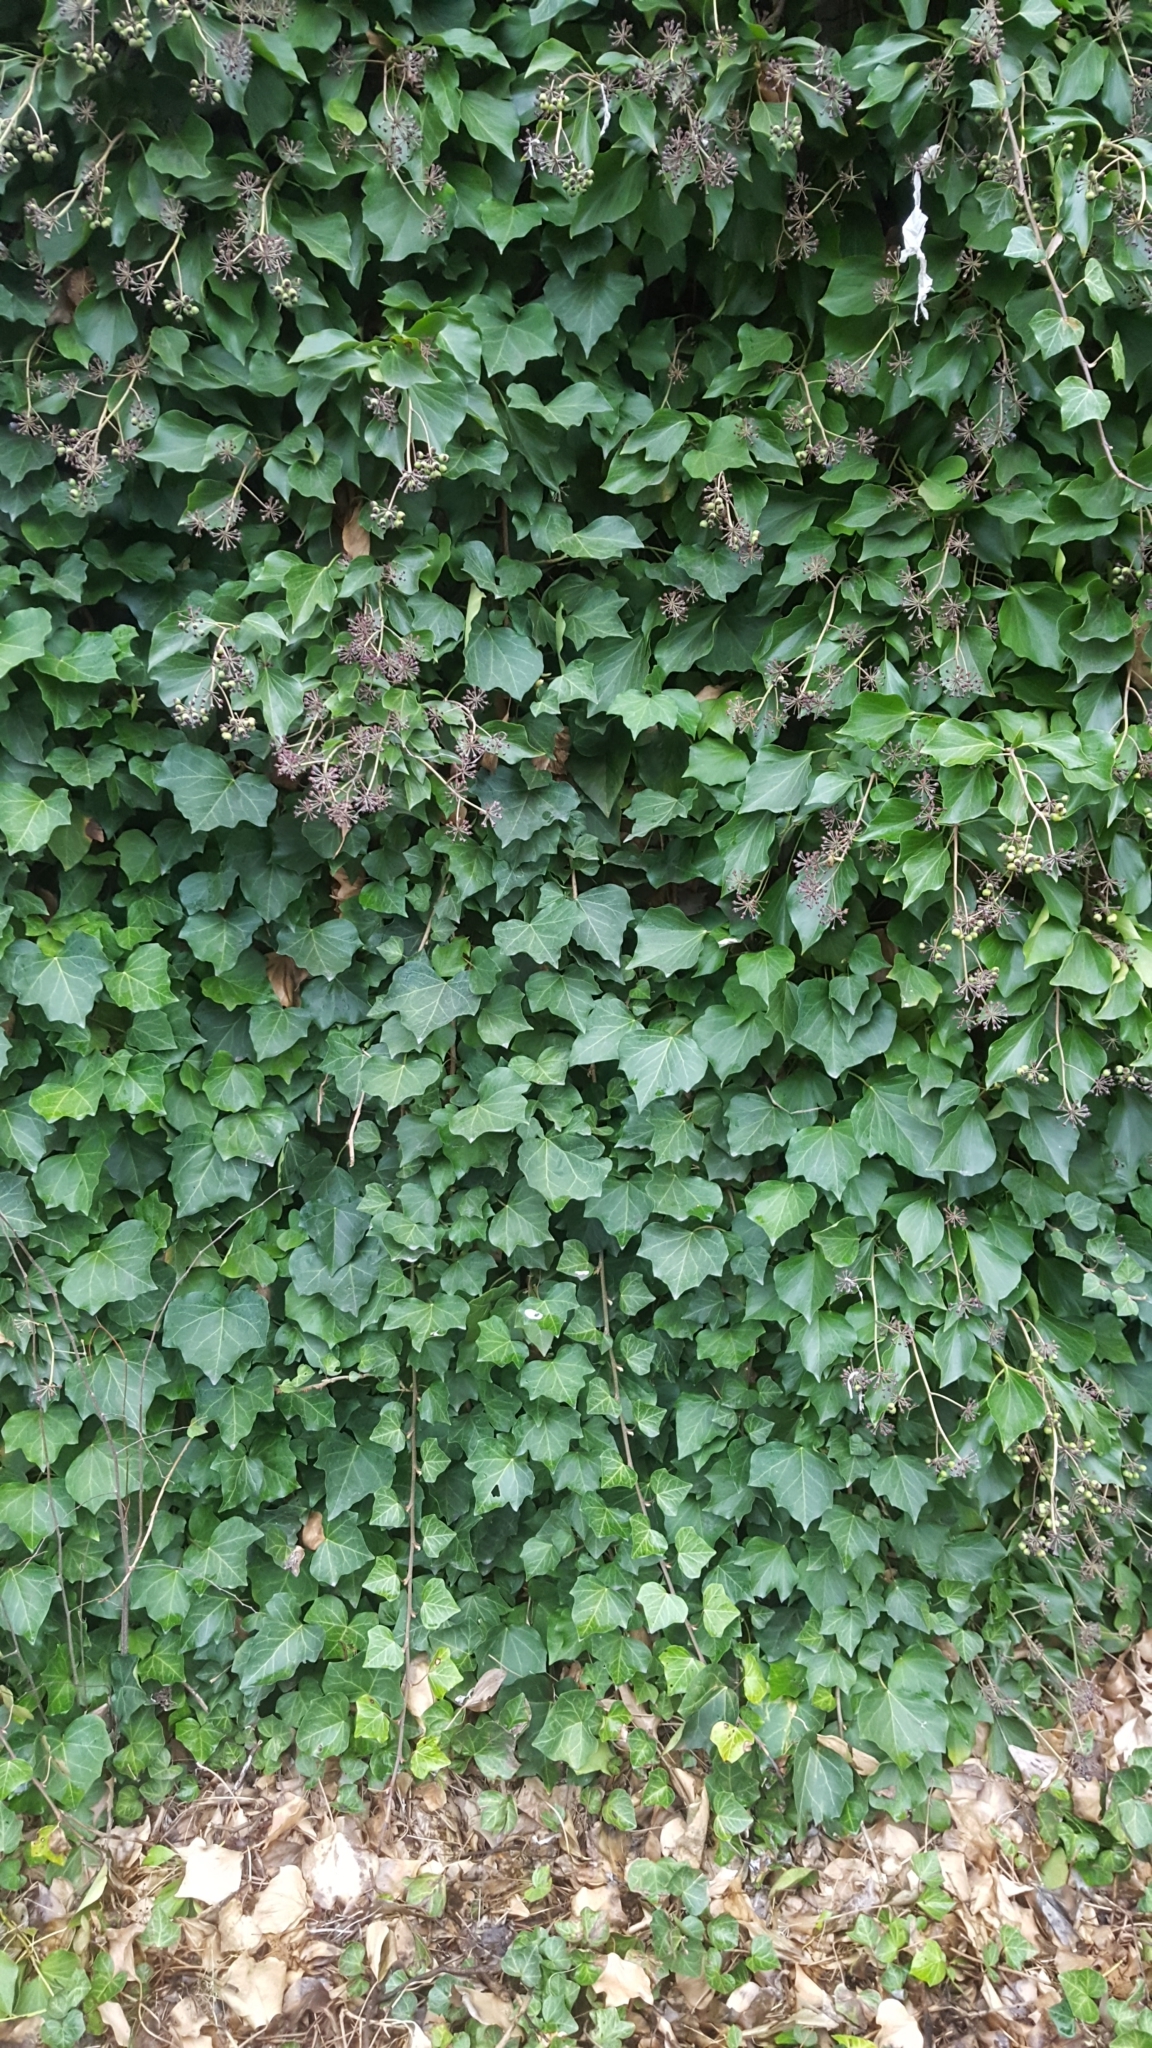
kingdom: Plantae
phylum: Tracheophyta
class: Magnoliopsida
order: Apiales
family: Araliaceae
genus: Hedera
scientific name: Hedera helix
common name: Ivy
